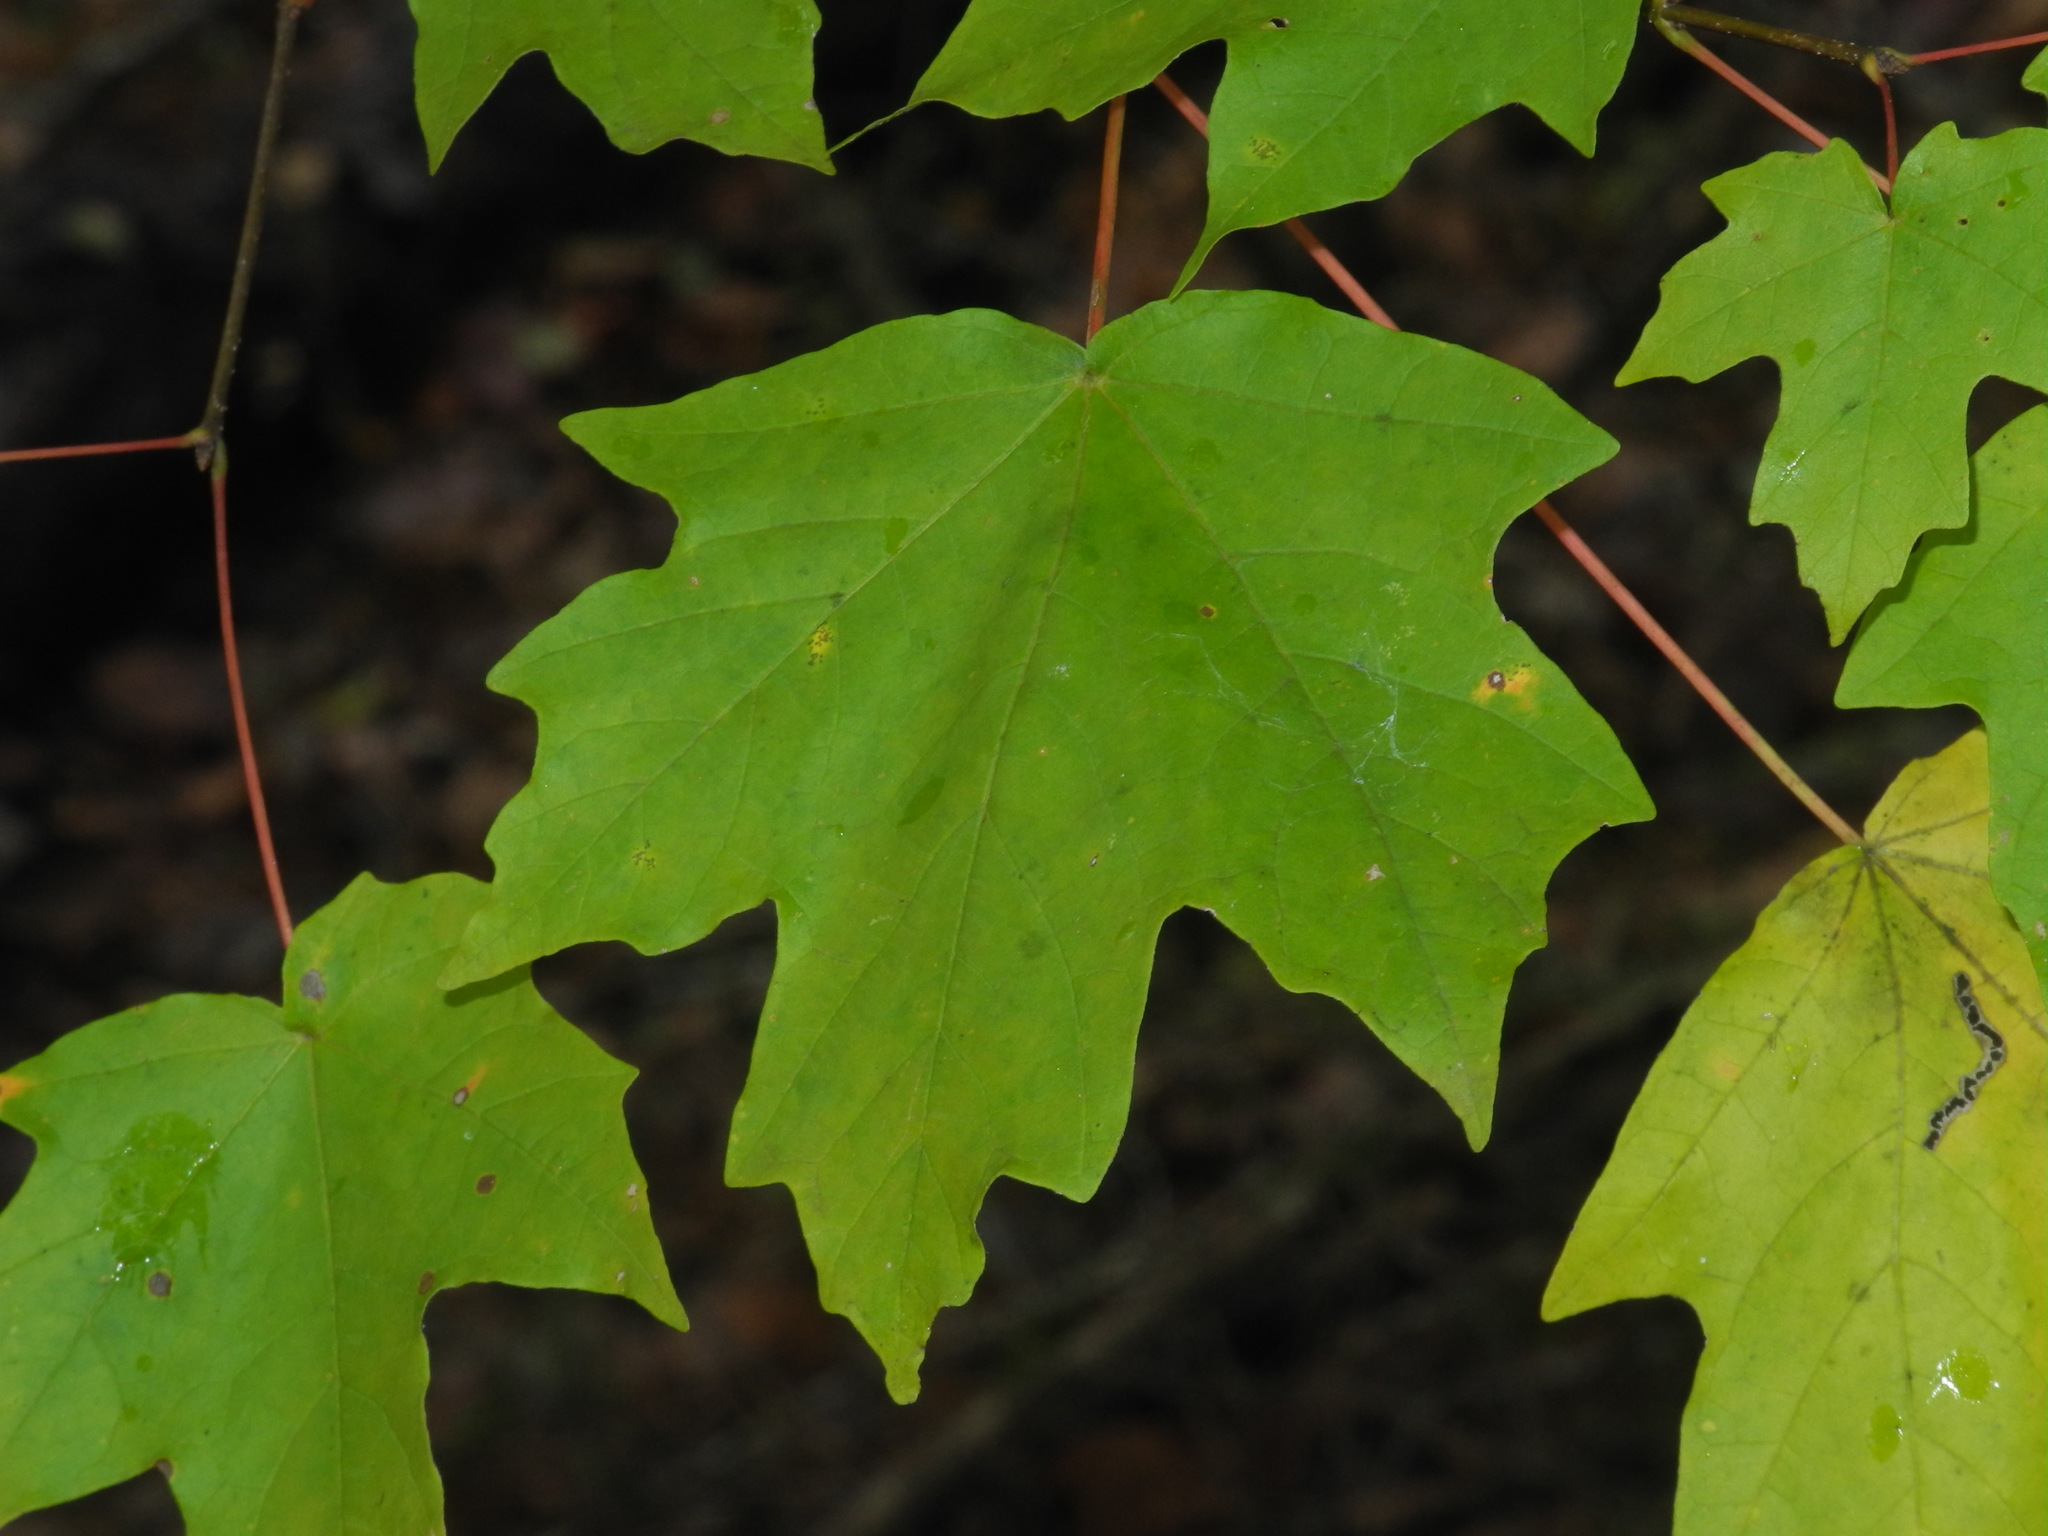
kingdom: Plantae
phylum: Tracheophyta
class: Magnoliopsida
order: Sapindales
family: Sapindaceae
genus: Acer
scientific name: Acer saccharum
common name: Sugar maple
